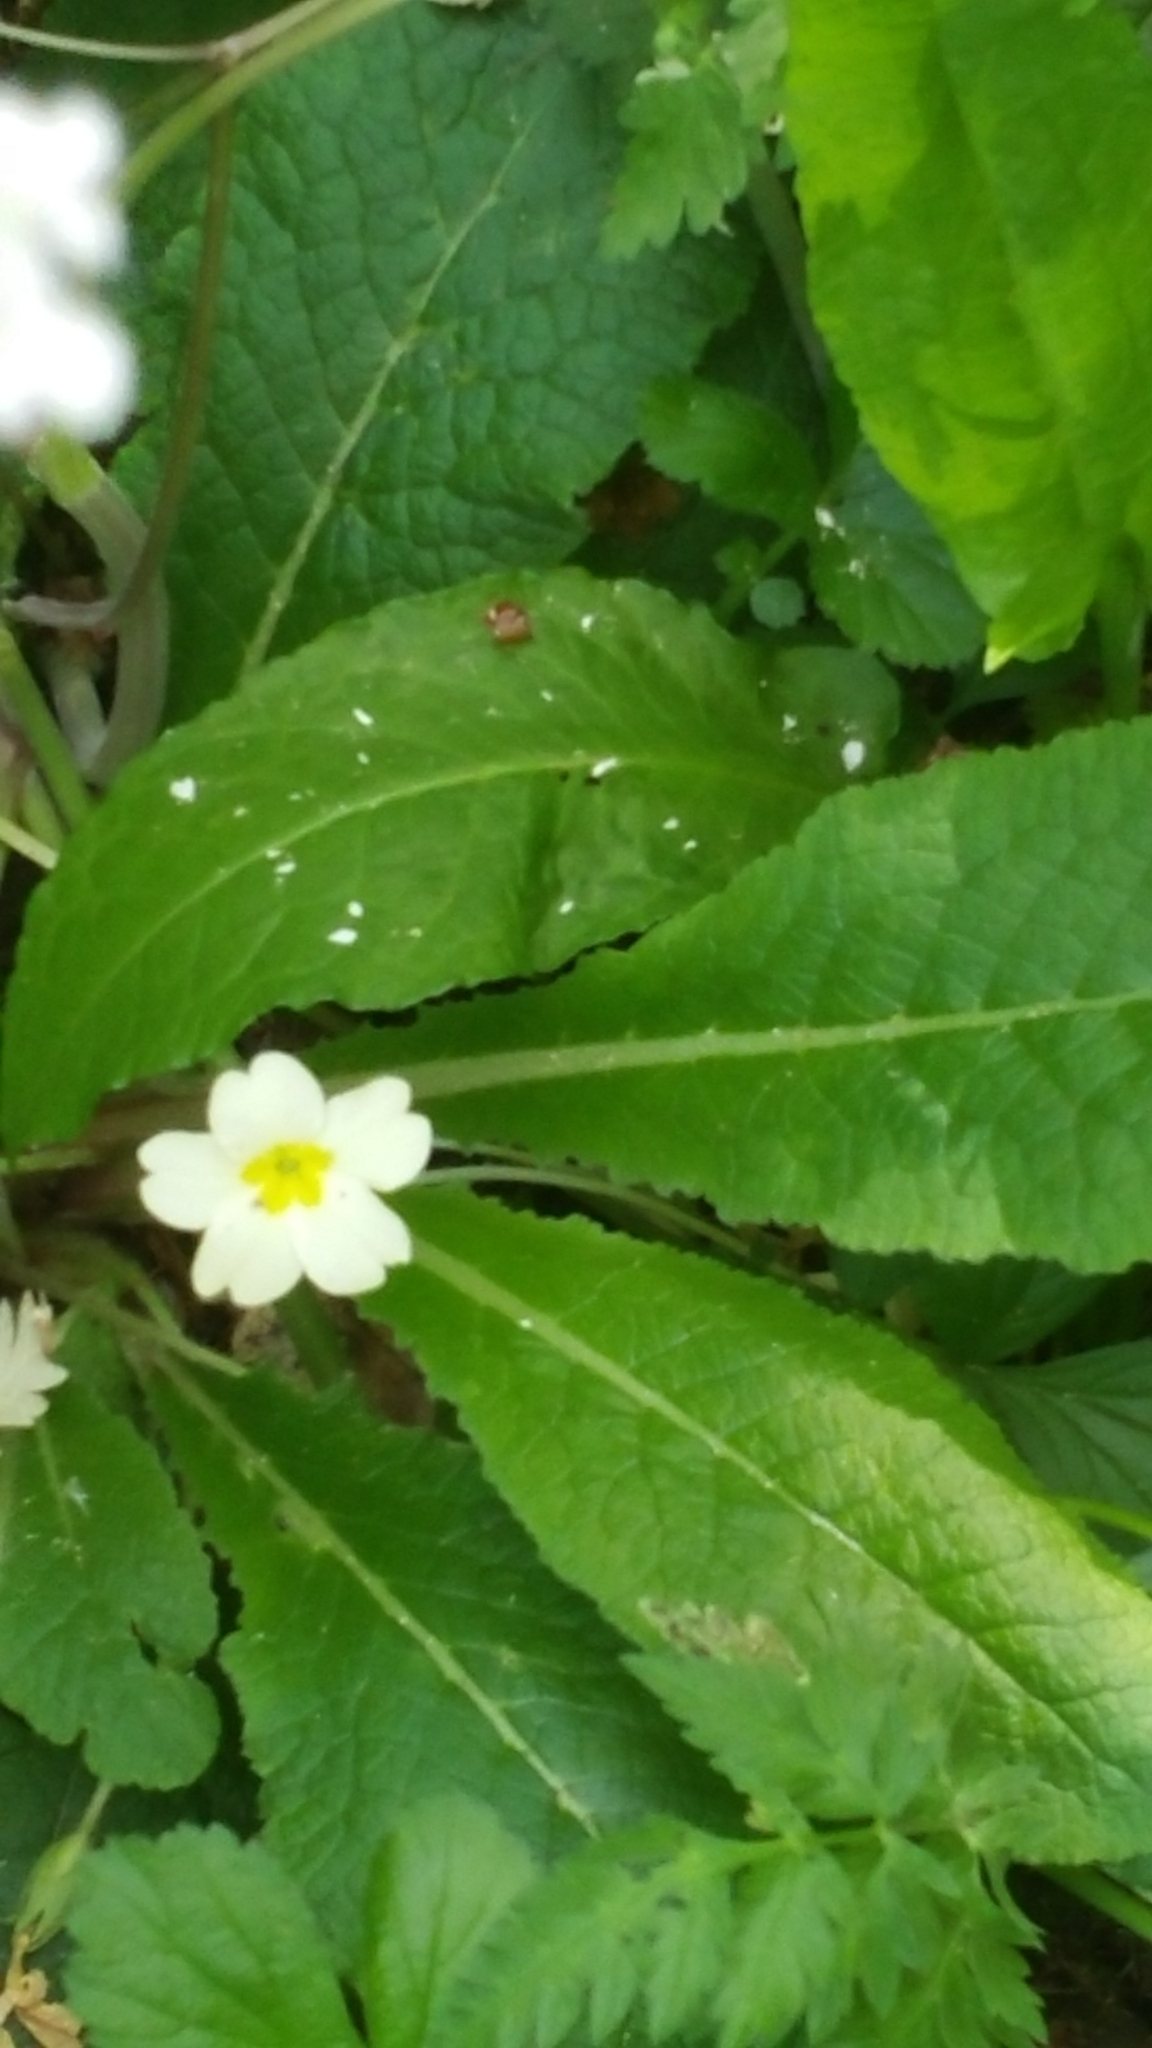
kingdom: Plantae
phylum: Tracheophyta
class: Magnoliopsida
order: Ericales
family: Primulaceae
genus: Primula
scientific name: Primula vulgaris
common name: Primrose
